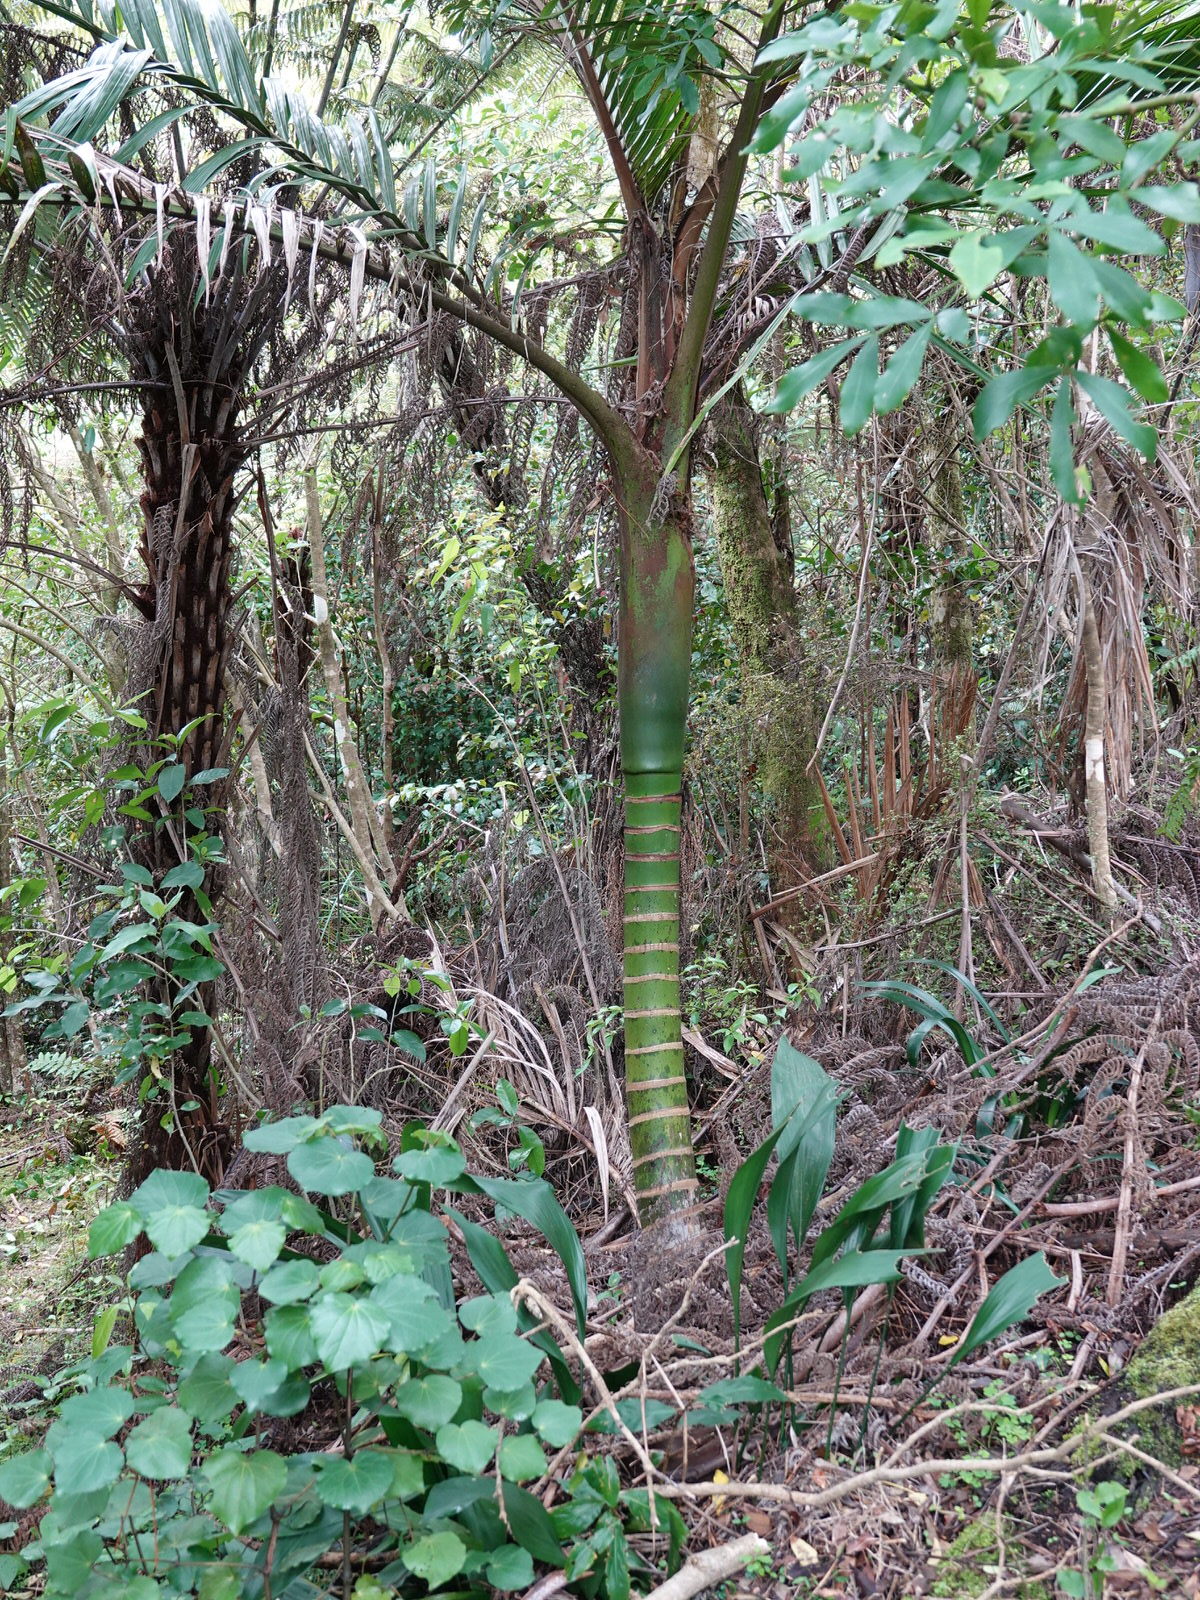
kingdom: Plantae
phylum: Tracheophyta
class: Liliopsida
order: Arecales
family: Arecaceae
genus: Rhopalostylis
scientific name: Rhopalostylis sapida
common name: Feather-duster palm
